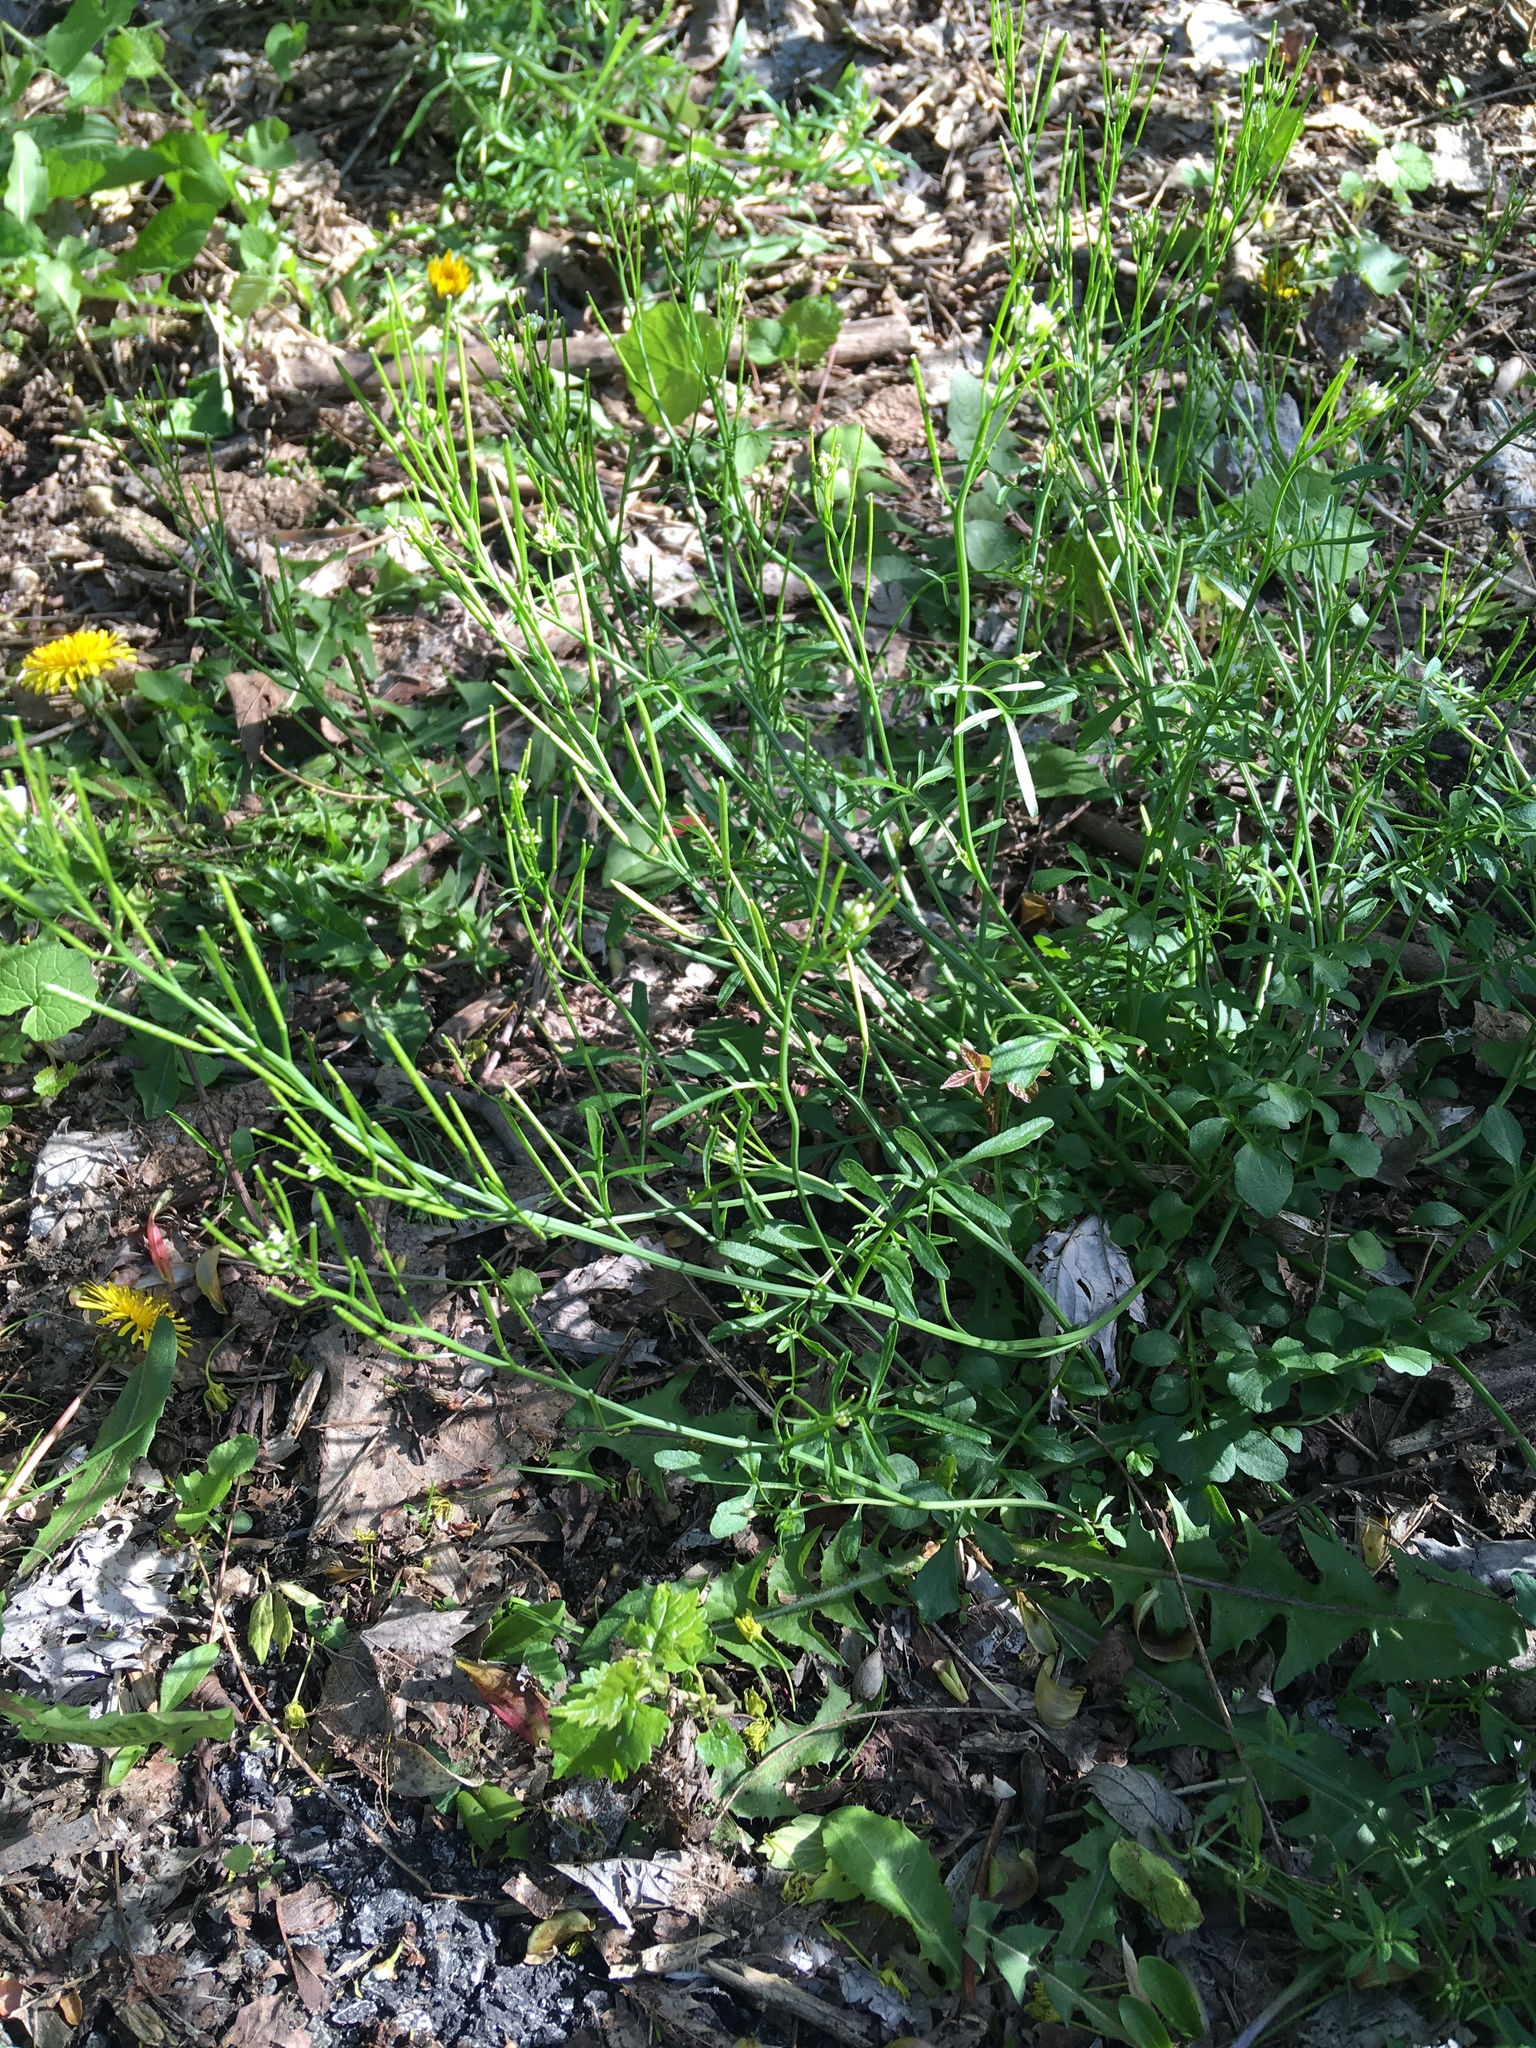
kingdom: Plantae
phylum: Tracheophyta
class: Magnoliopsida
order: Brassicales
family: Brassicaceae
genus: Cardamine
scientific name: Cardamine hirsuta
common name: Hairy bittercress
